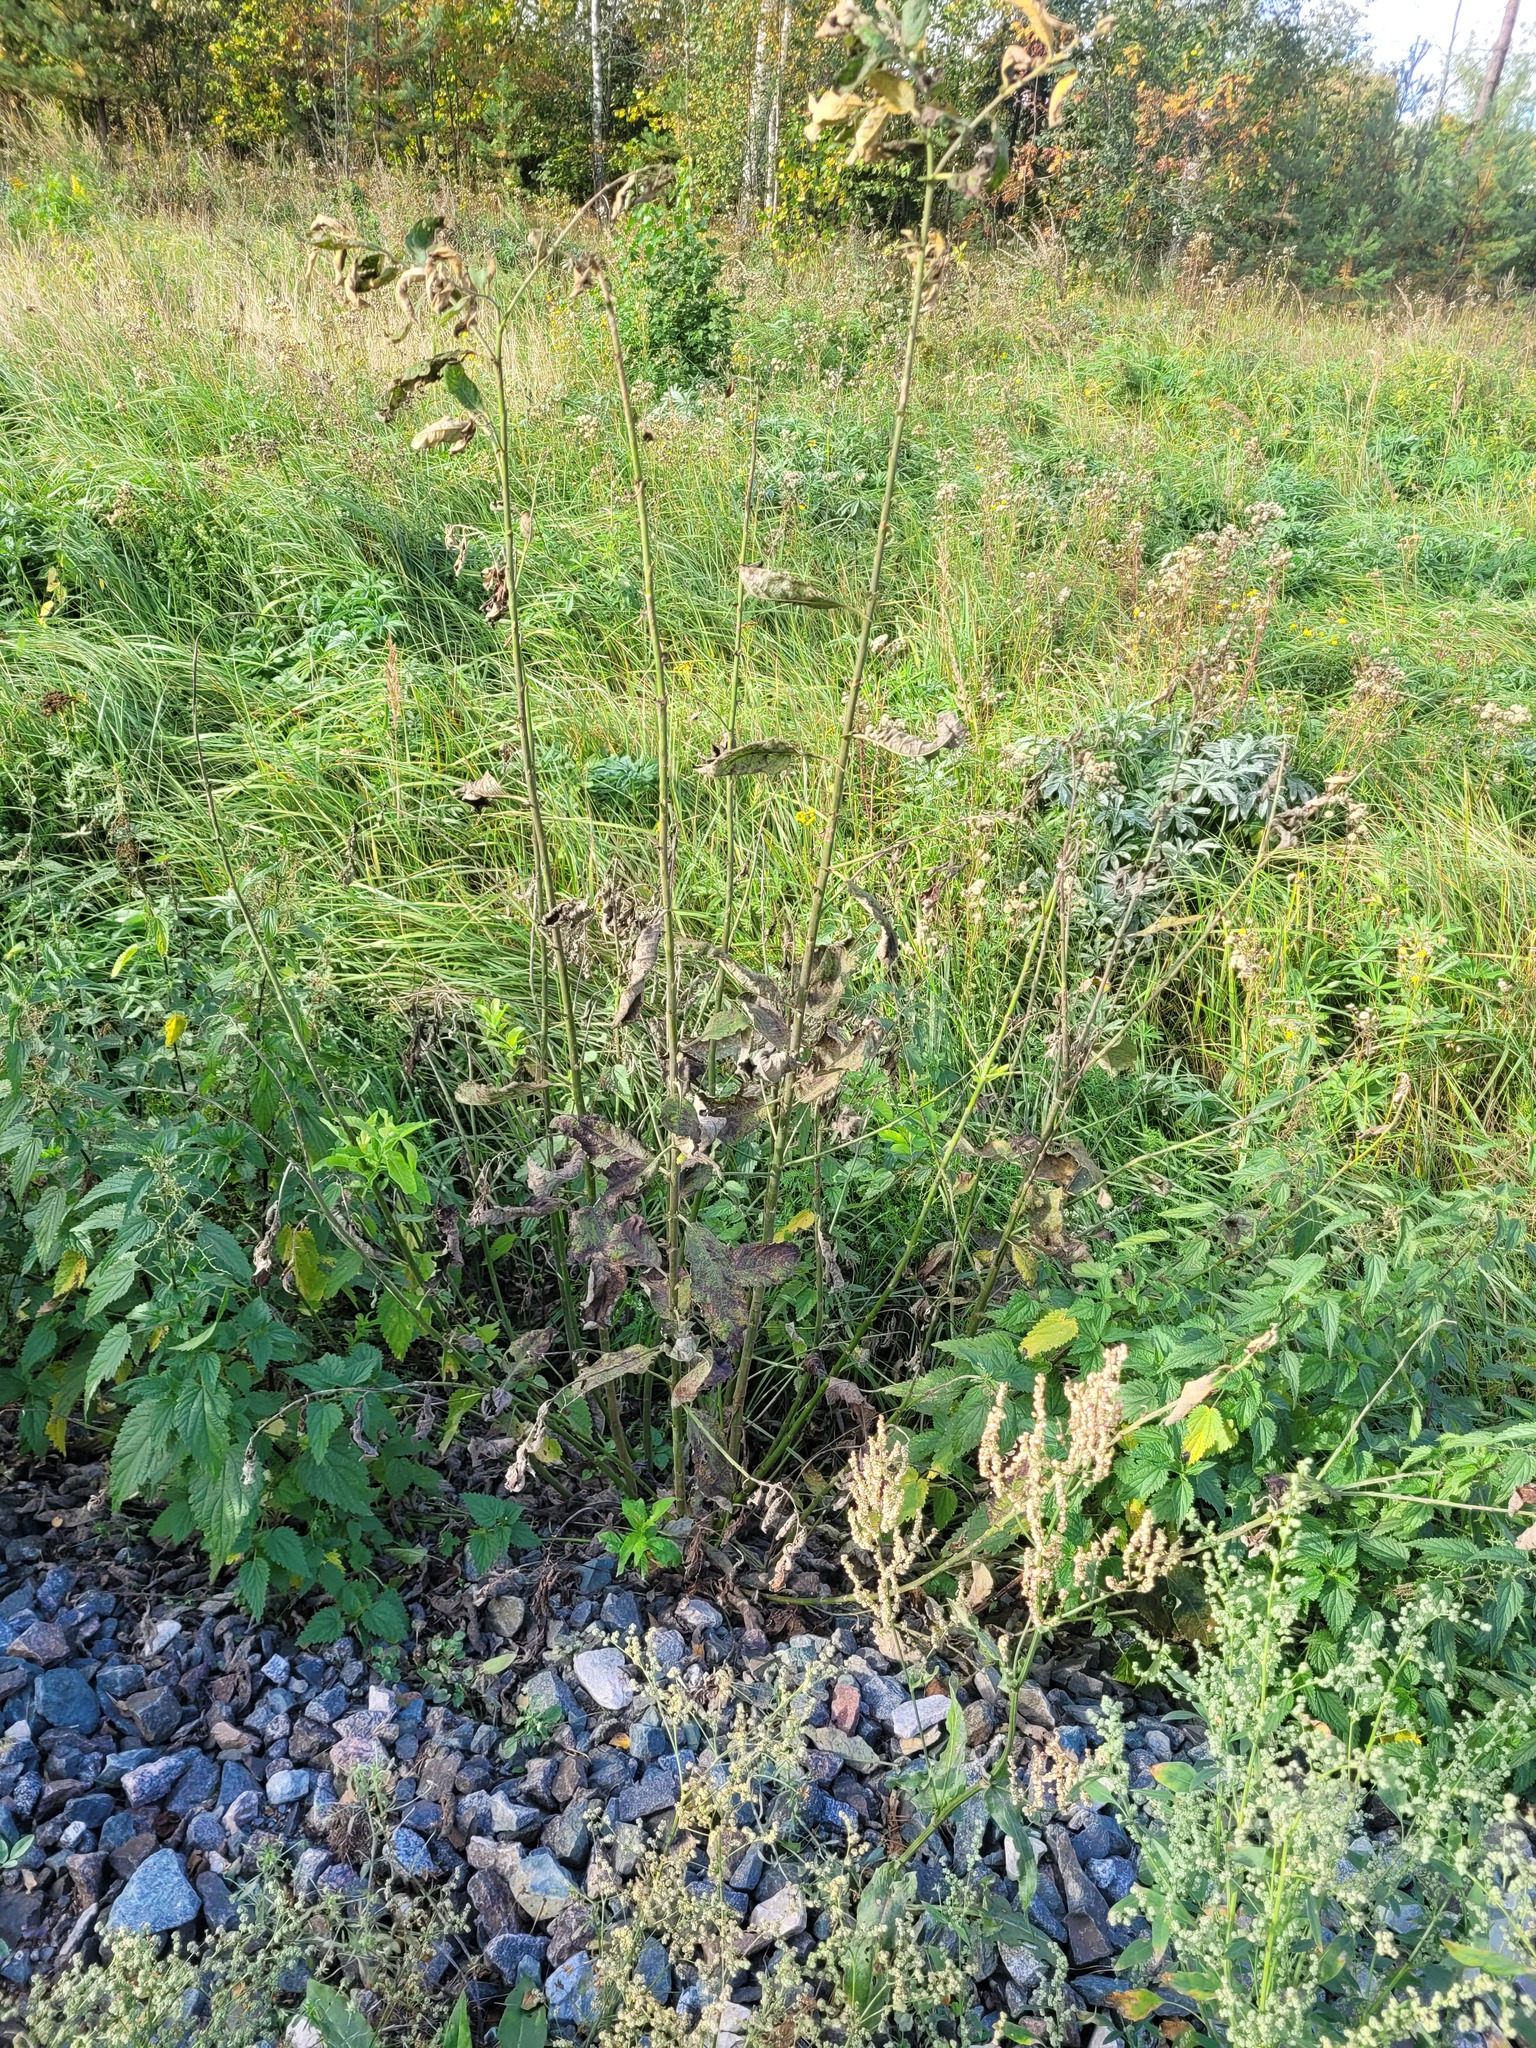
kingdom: Plantae
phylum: Tracheophyta
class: Magnoliopsida
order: Malpighiales
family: Salicaceae
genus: Salix
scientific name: Salix caprea
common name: Goat willow
